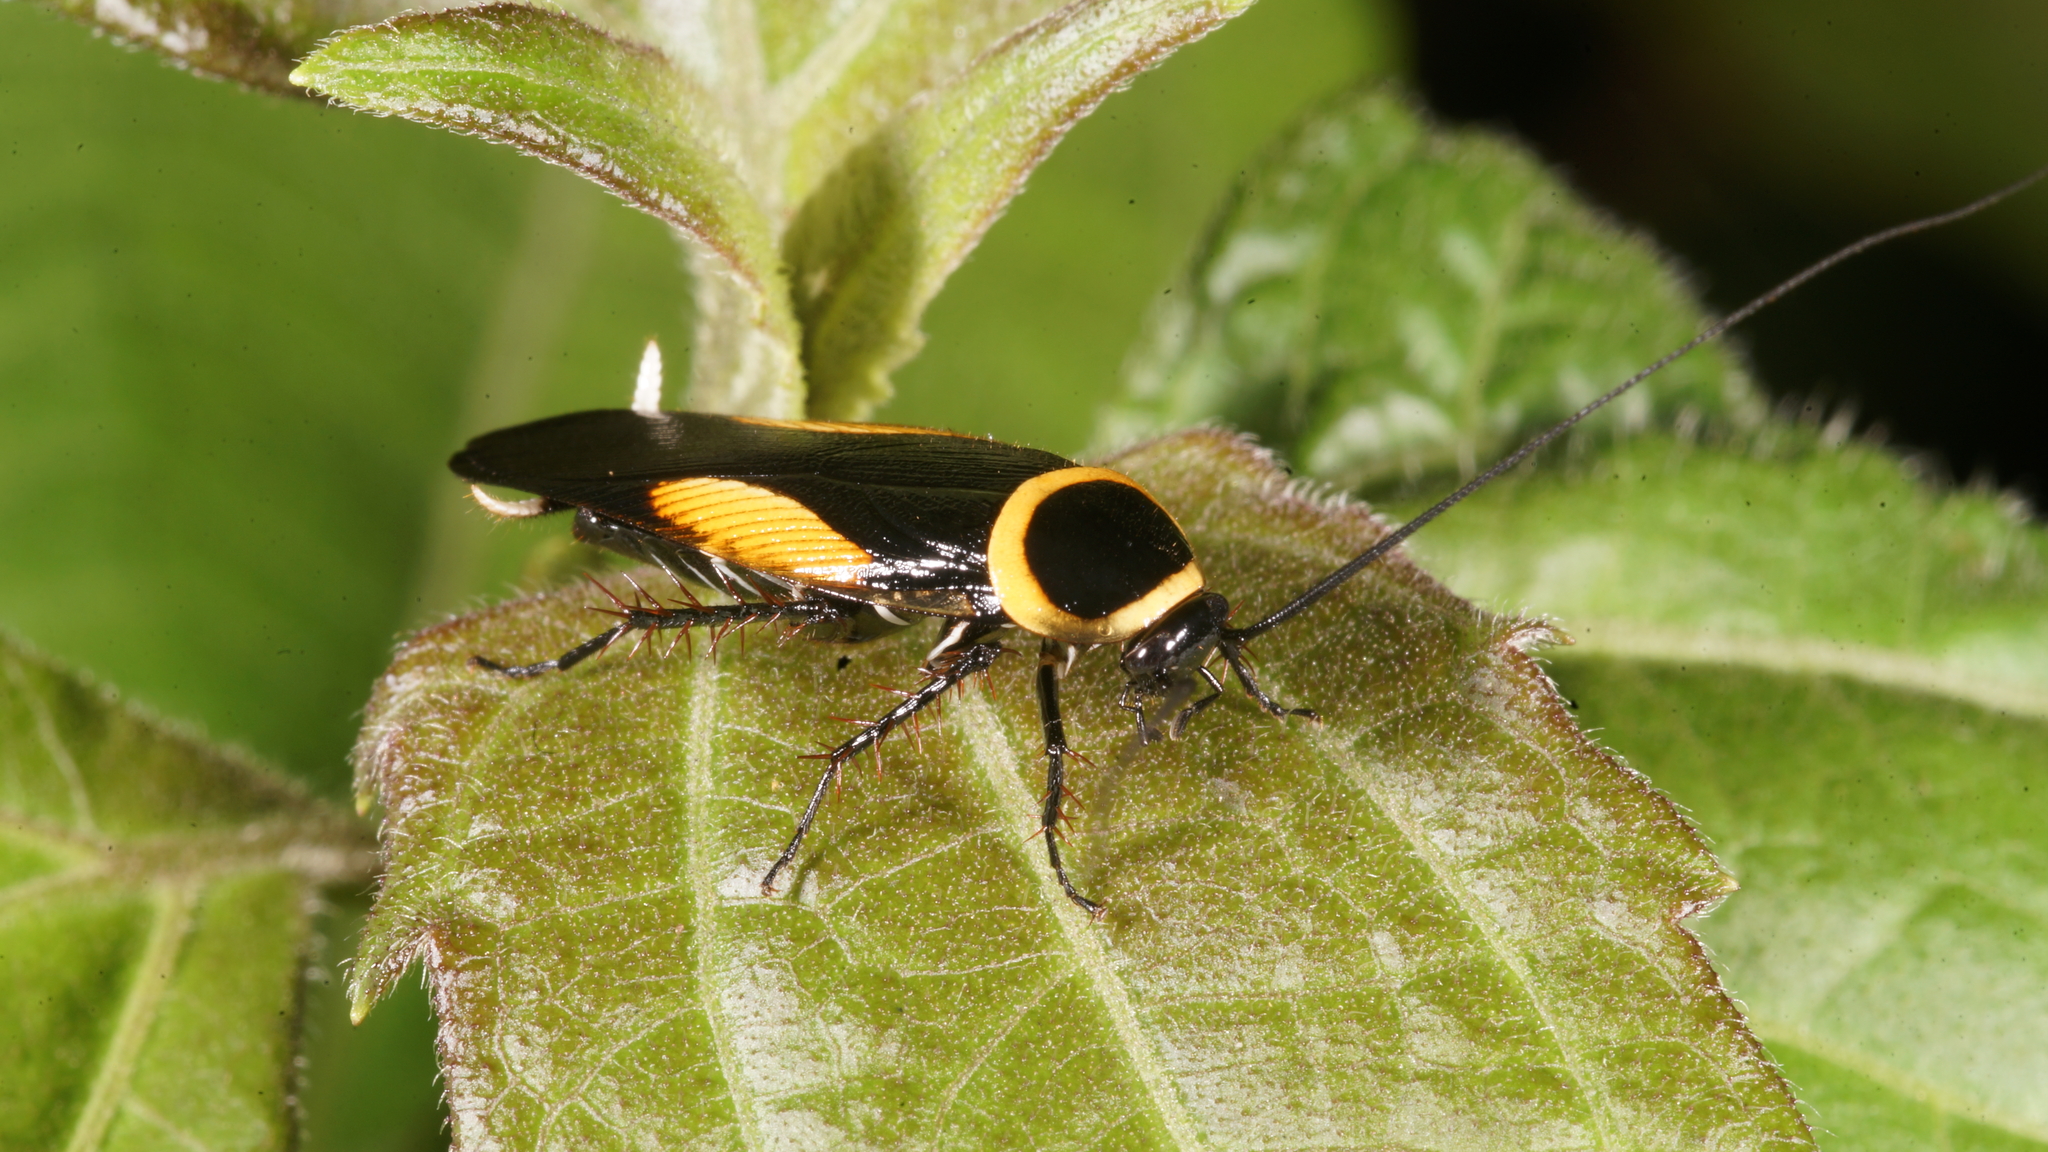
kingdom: Animalia
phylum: Arthropoda
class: Insecta
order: Blattodea
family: Ectobiidae
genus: Hemithyrsocera
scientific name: Hemithyrsocera vittata
